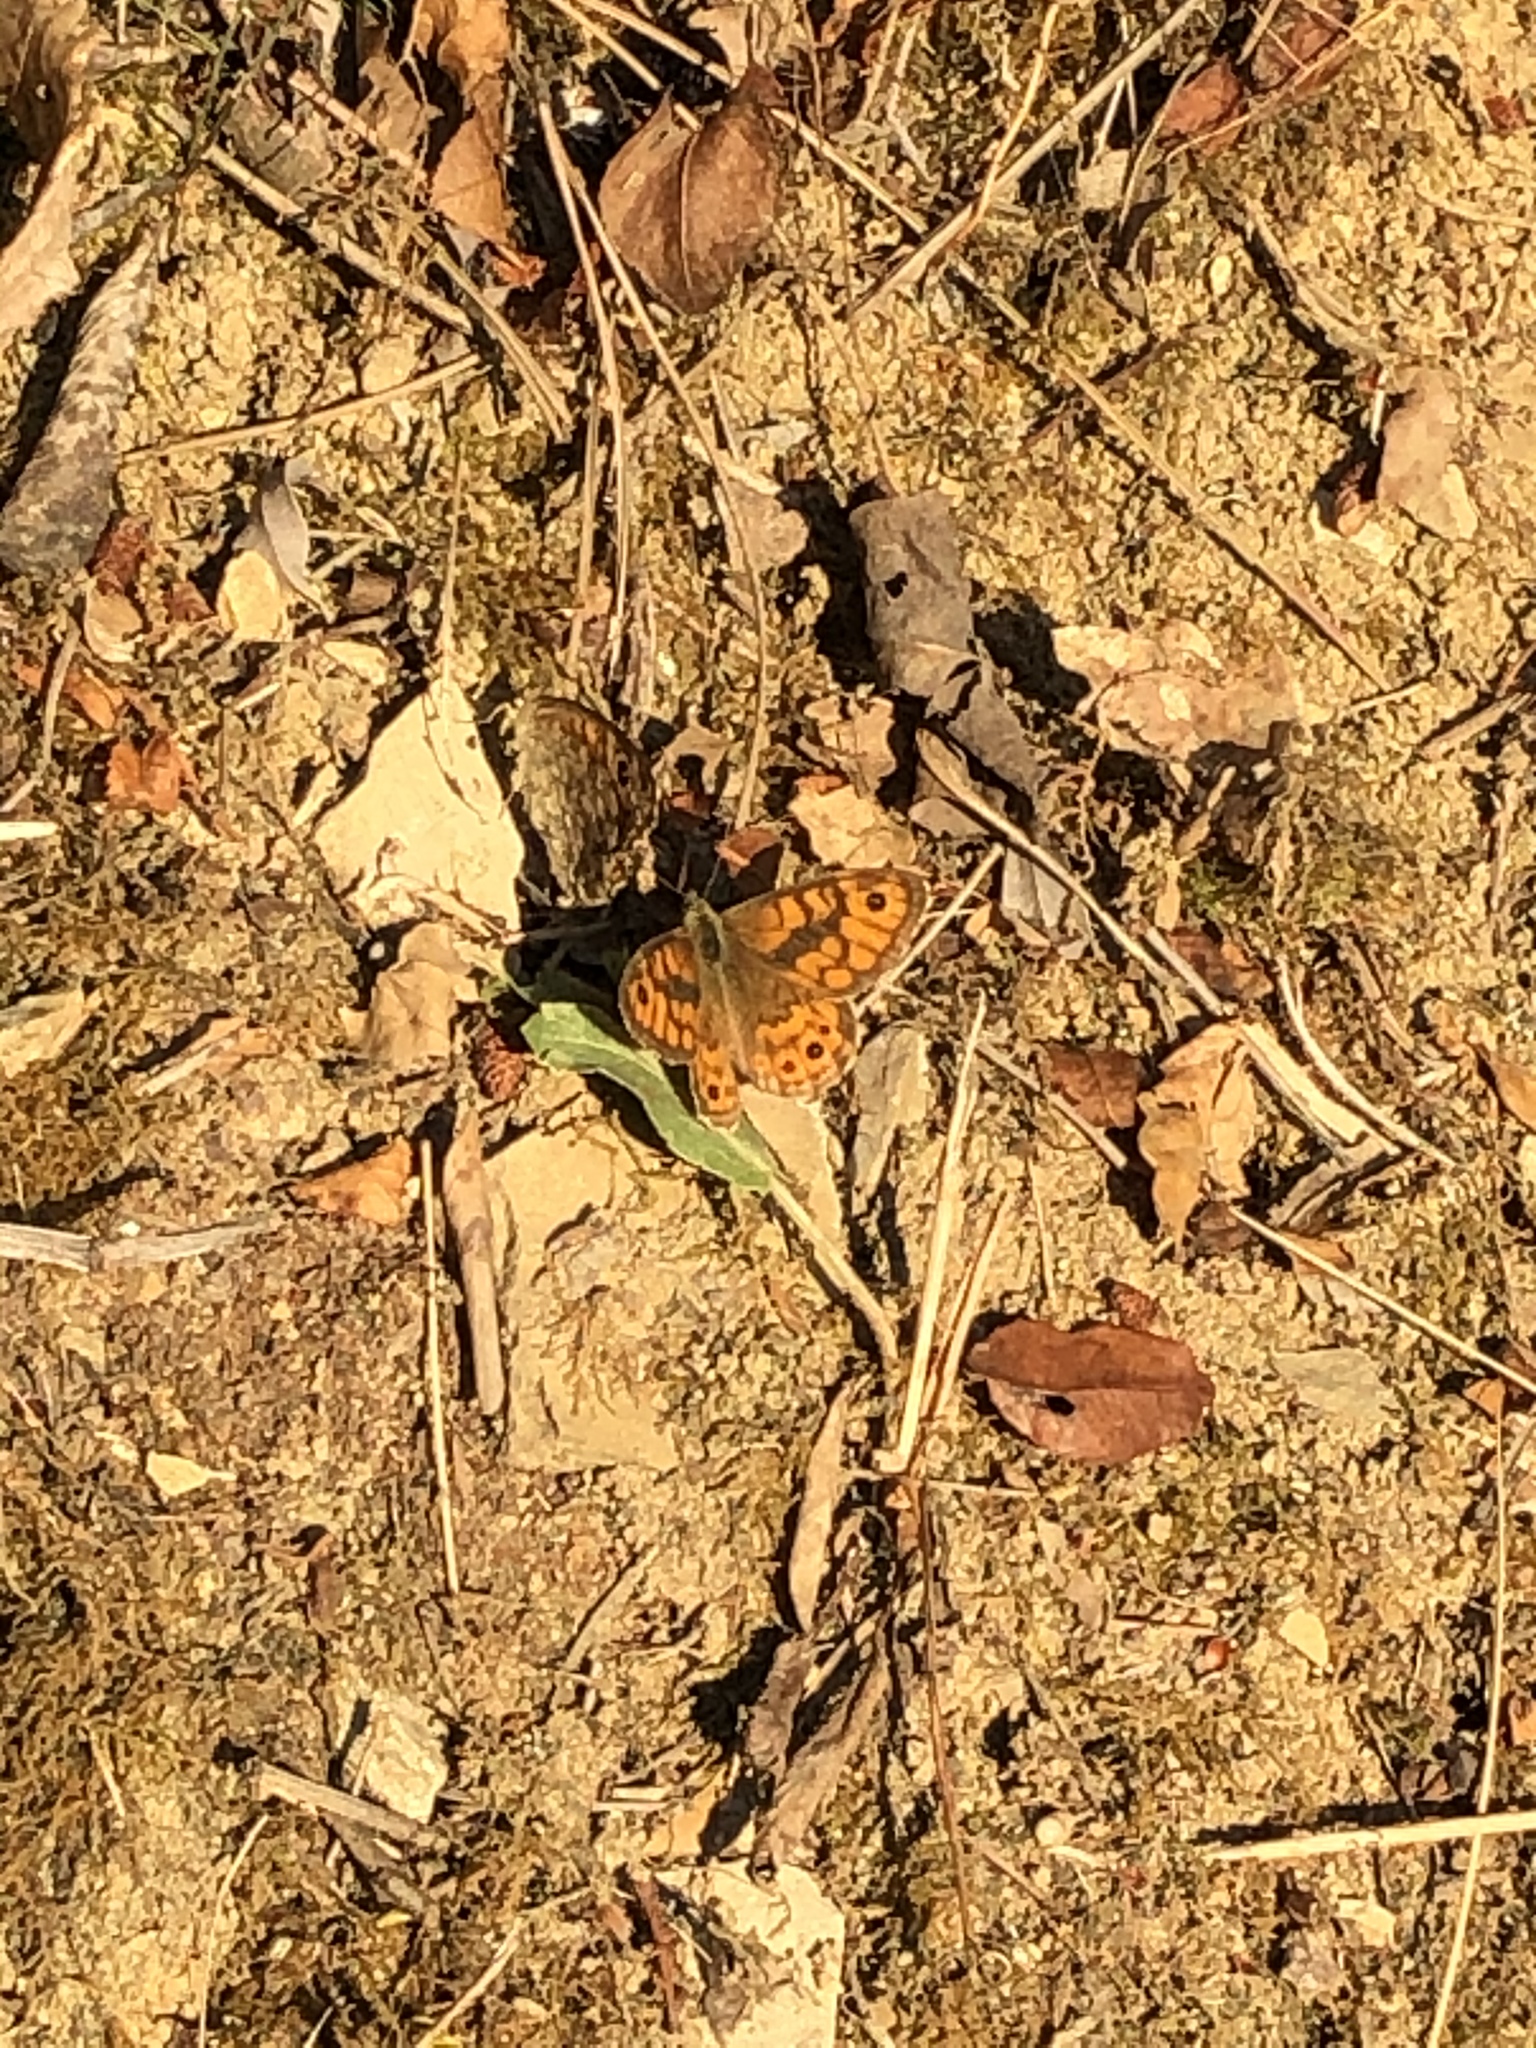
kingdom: Animalia
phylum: Arthropoda
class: Insecta
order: Lepidoptera
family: Nymphalidae
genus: Pararge
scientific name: Pararge Lasiommata megera
